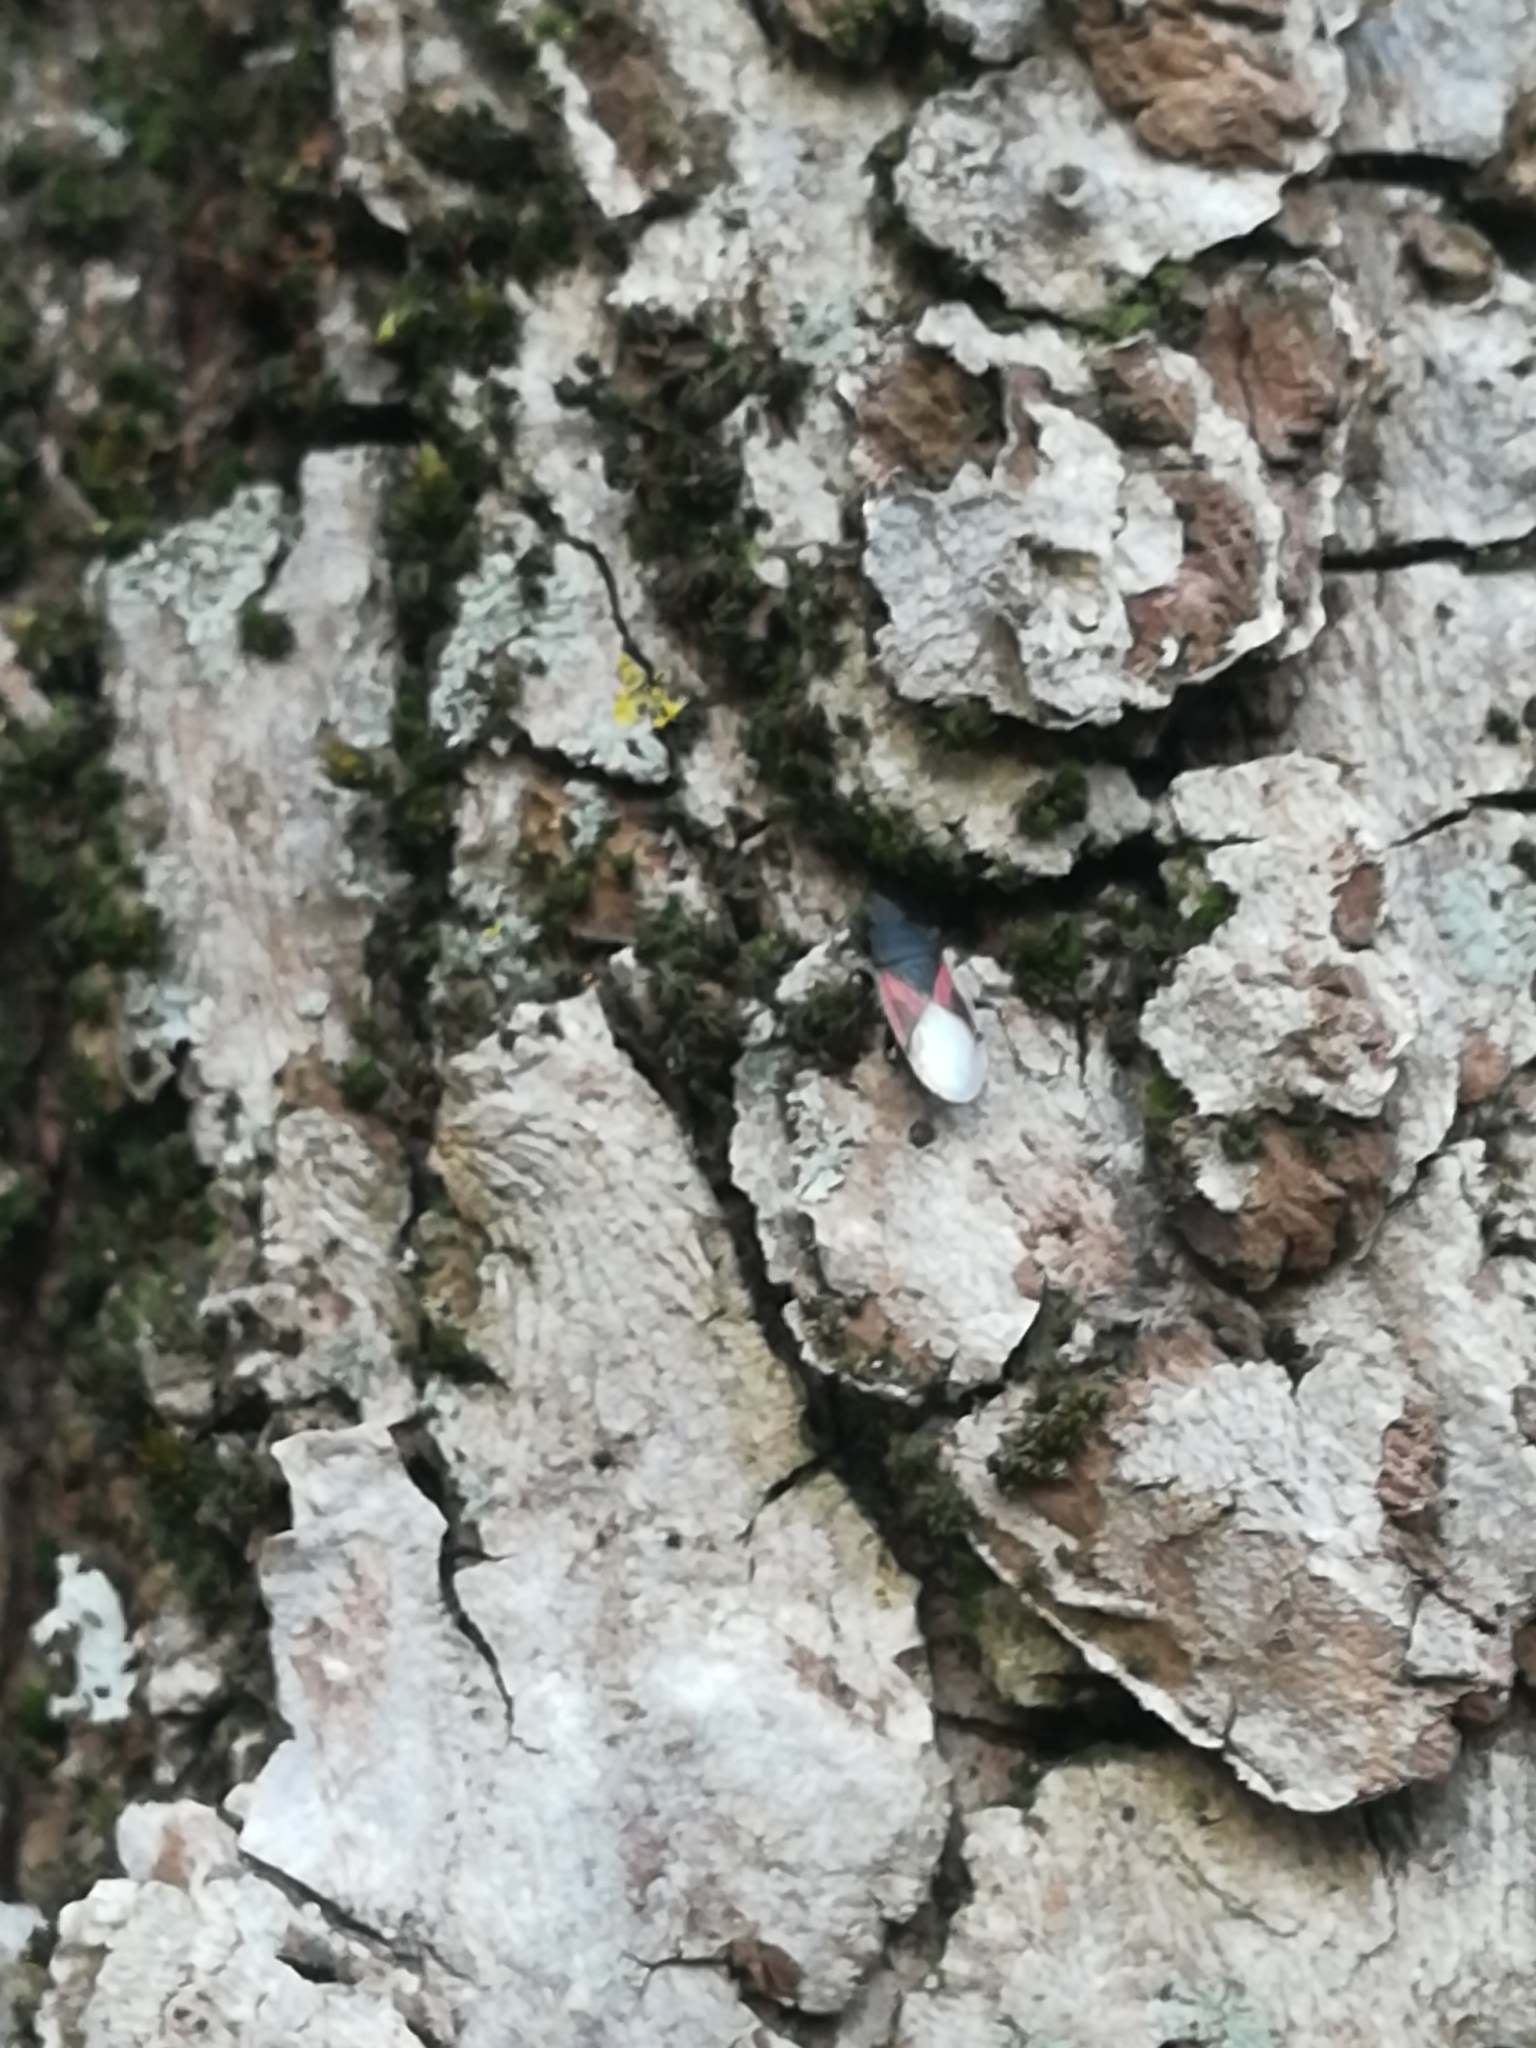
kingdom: Animalia
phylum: Arthropoda
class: Insecta
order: Hemiptera
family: Oxycarenidae
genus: Oxycarenus
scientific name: Oxycarenus lavaterae
